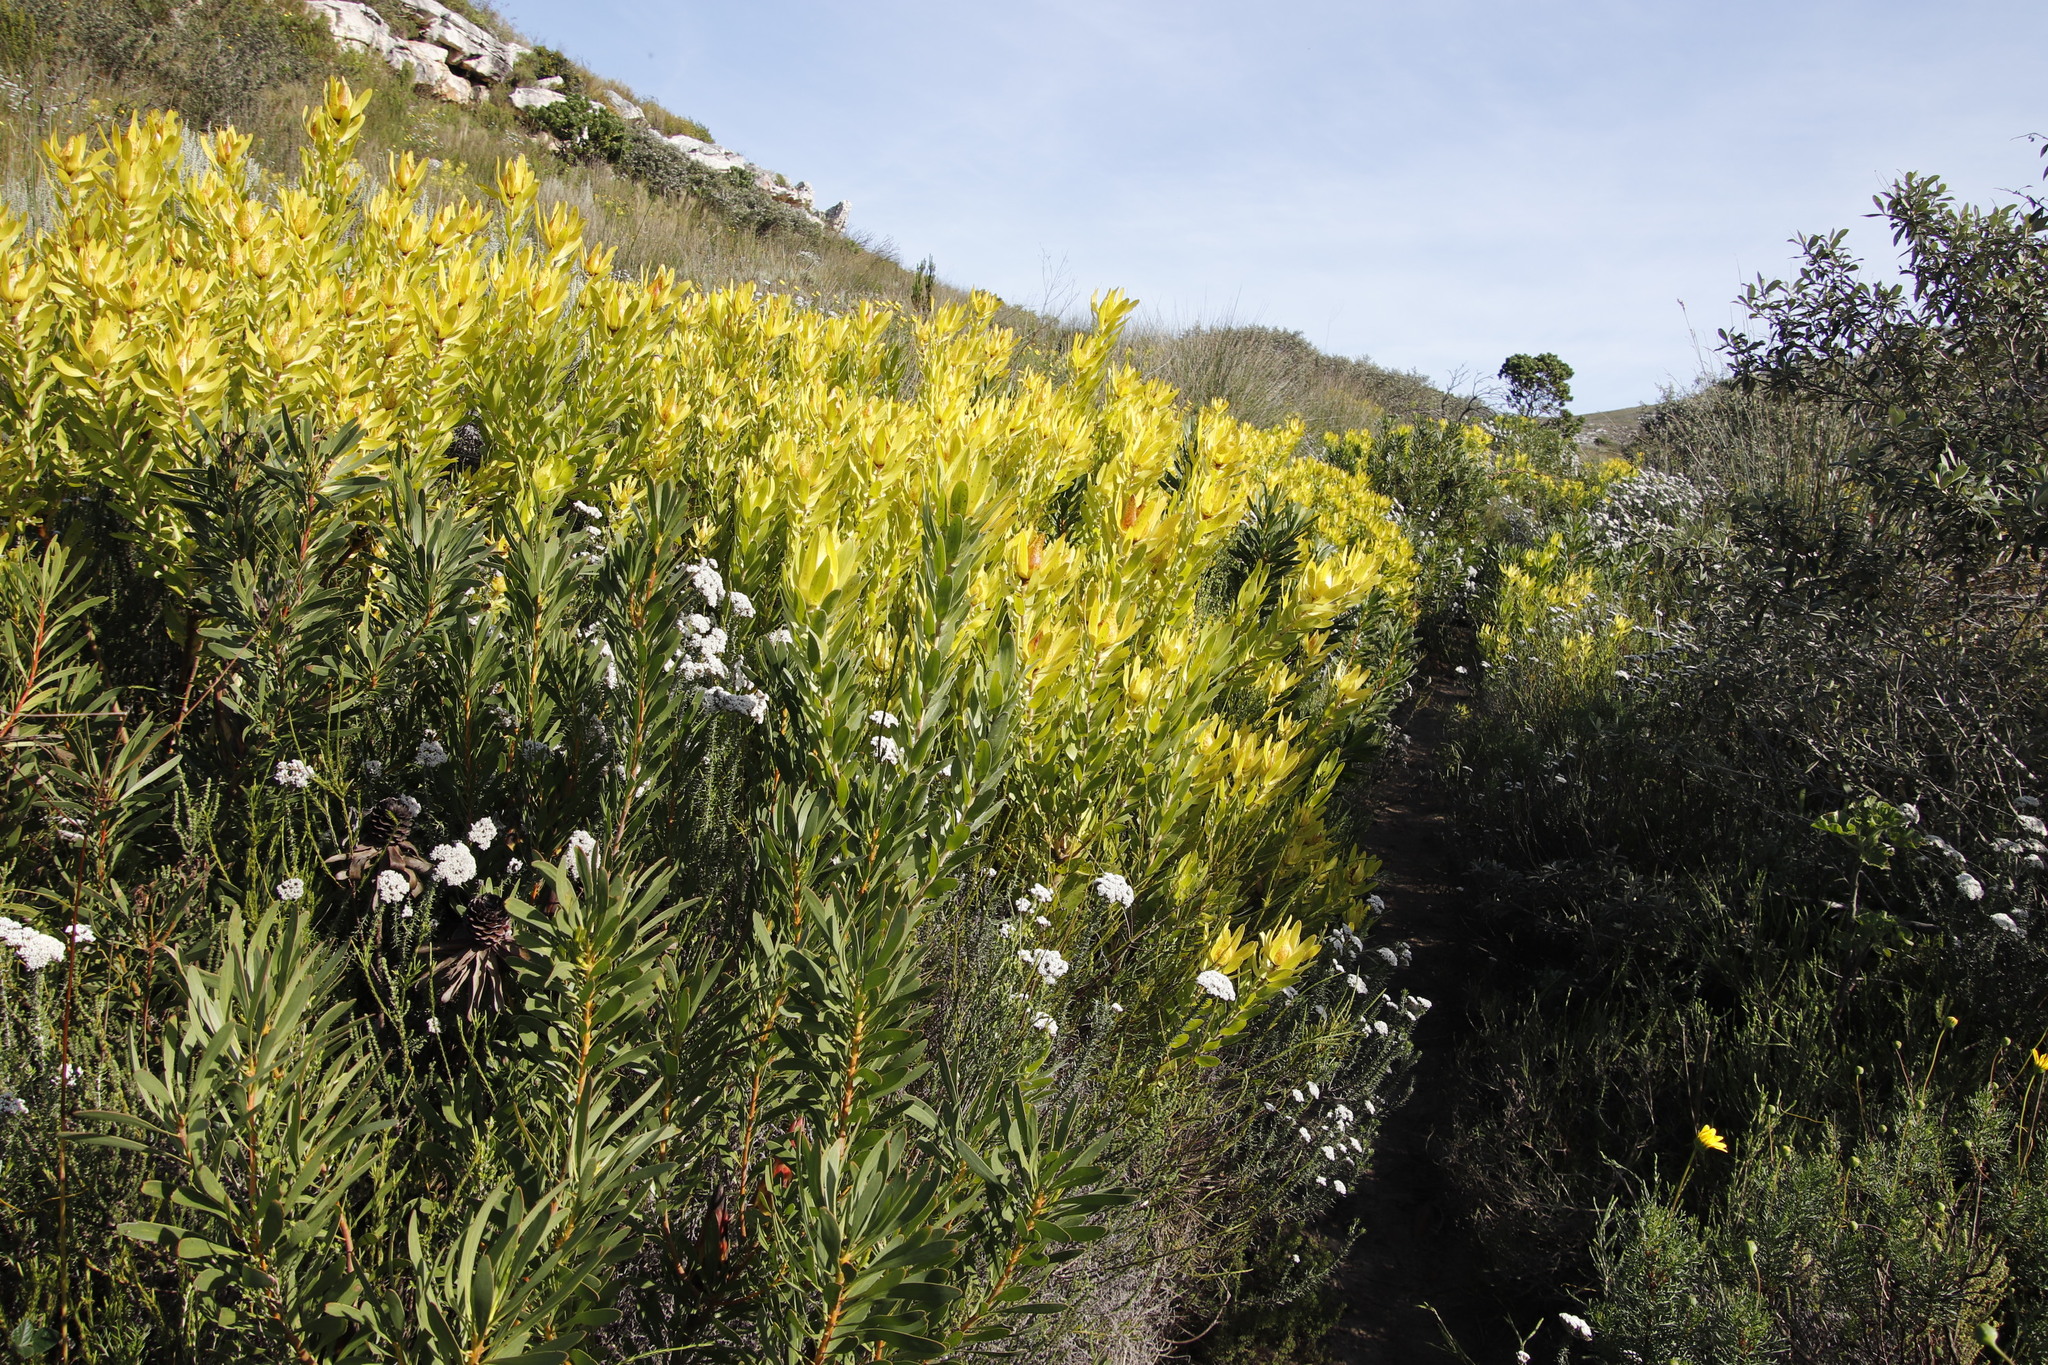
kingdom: Plantae
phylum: Tracheophyta
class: Magnoliopsida
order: Proteales
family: Proteaceae
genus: Leucadendron
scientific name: Leucadendron laureolum
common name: Golden sunshinebush
